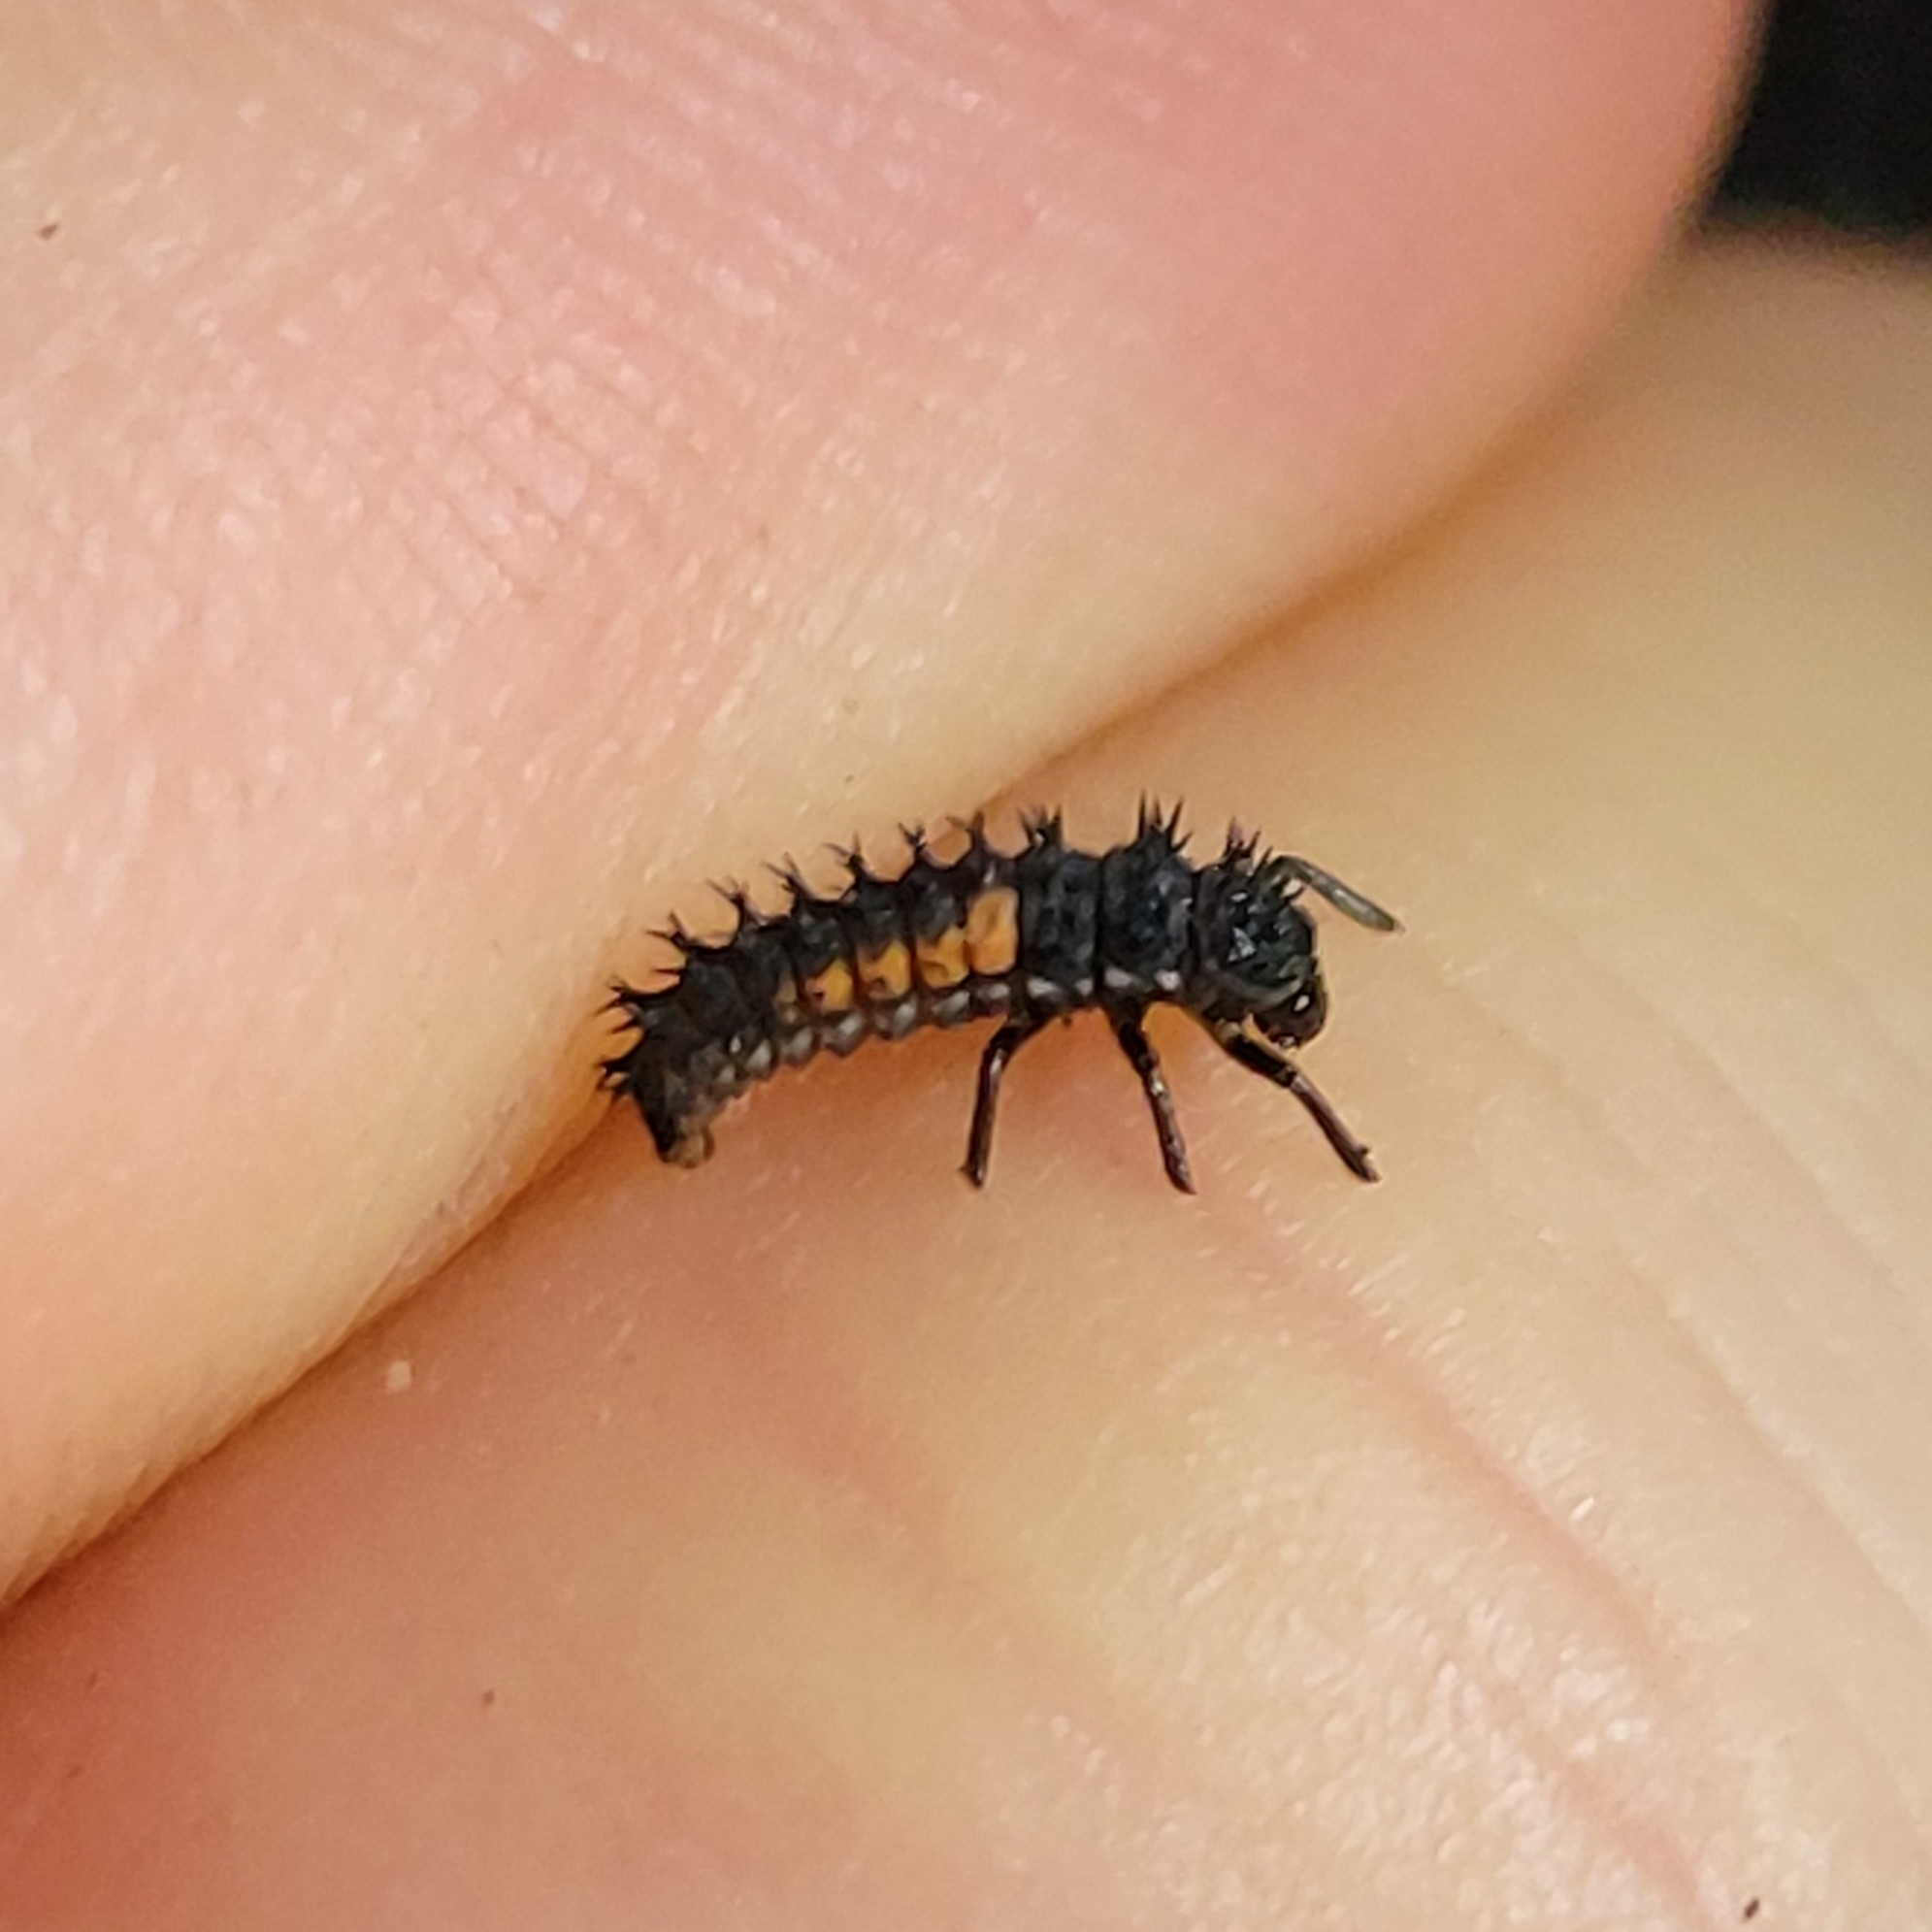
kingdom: Animalia
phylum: Arthropoda
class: Insecta
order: Coleoptera
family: Coccinellidae
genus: Harmonia
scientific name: Harmonia axyridis
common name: Harlequin ladybird
